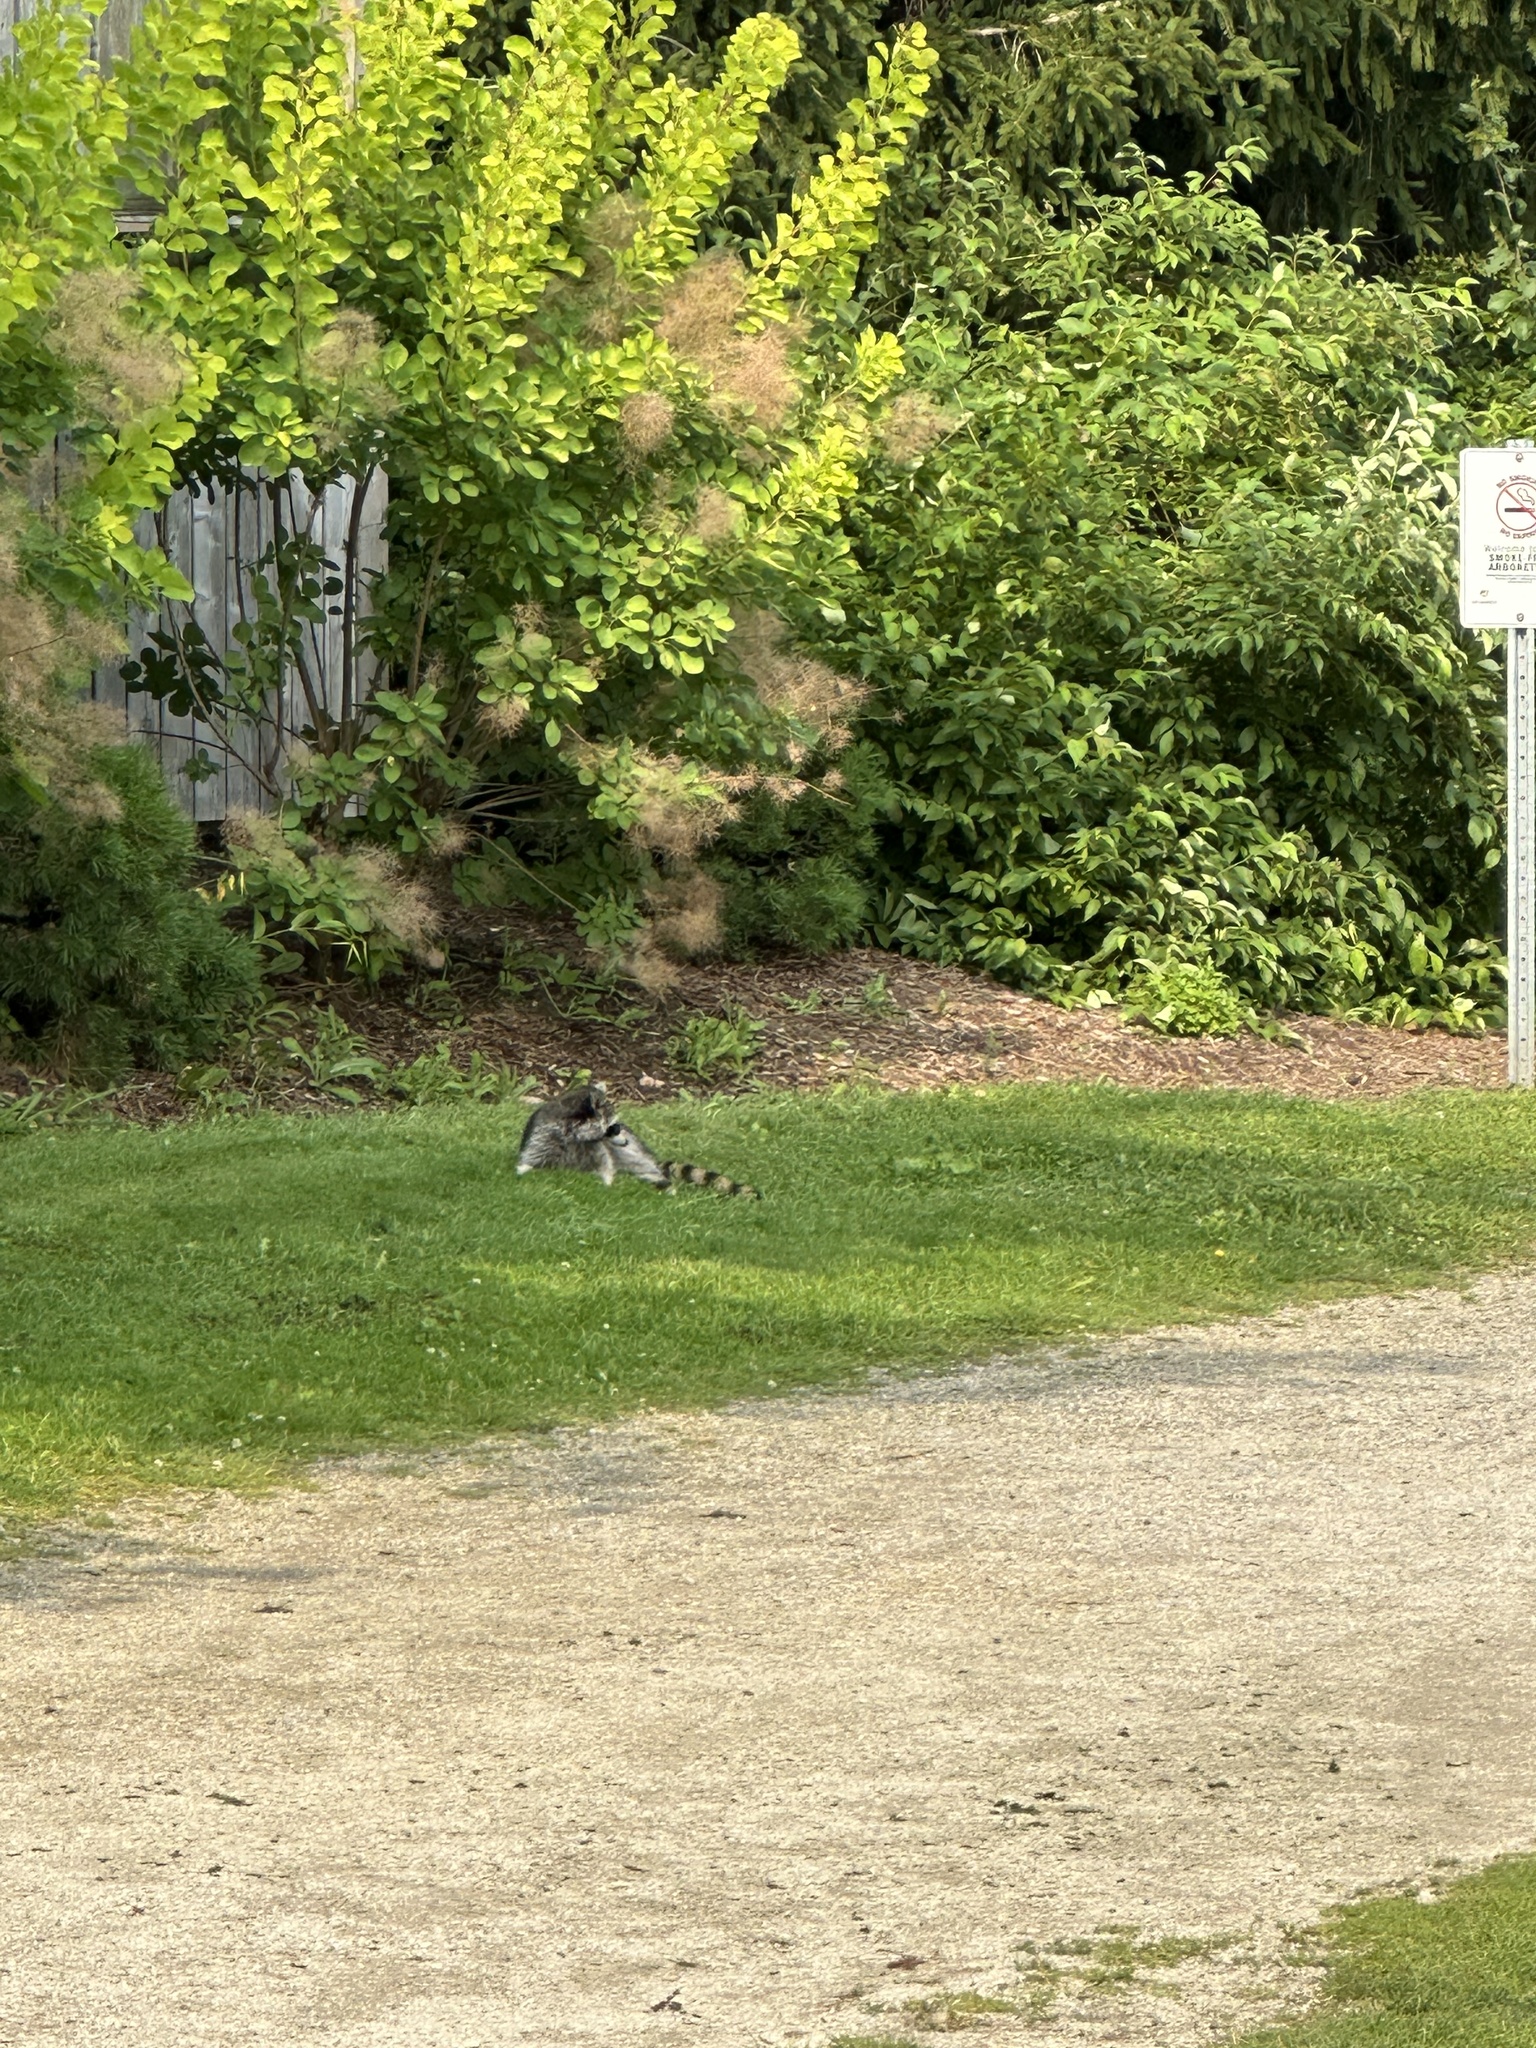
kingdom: Animalia
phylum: Chordata
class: Mammalia
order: Carnivora
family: Procyonidae
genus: Procyon
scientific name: Procyon lotor
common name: Raccoon
